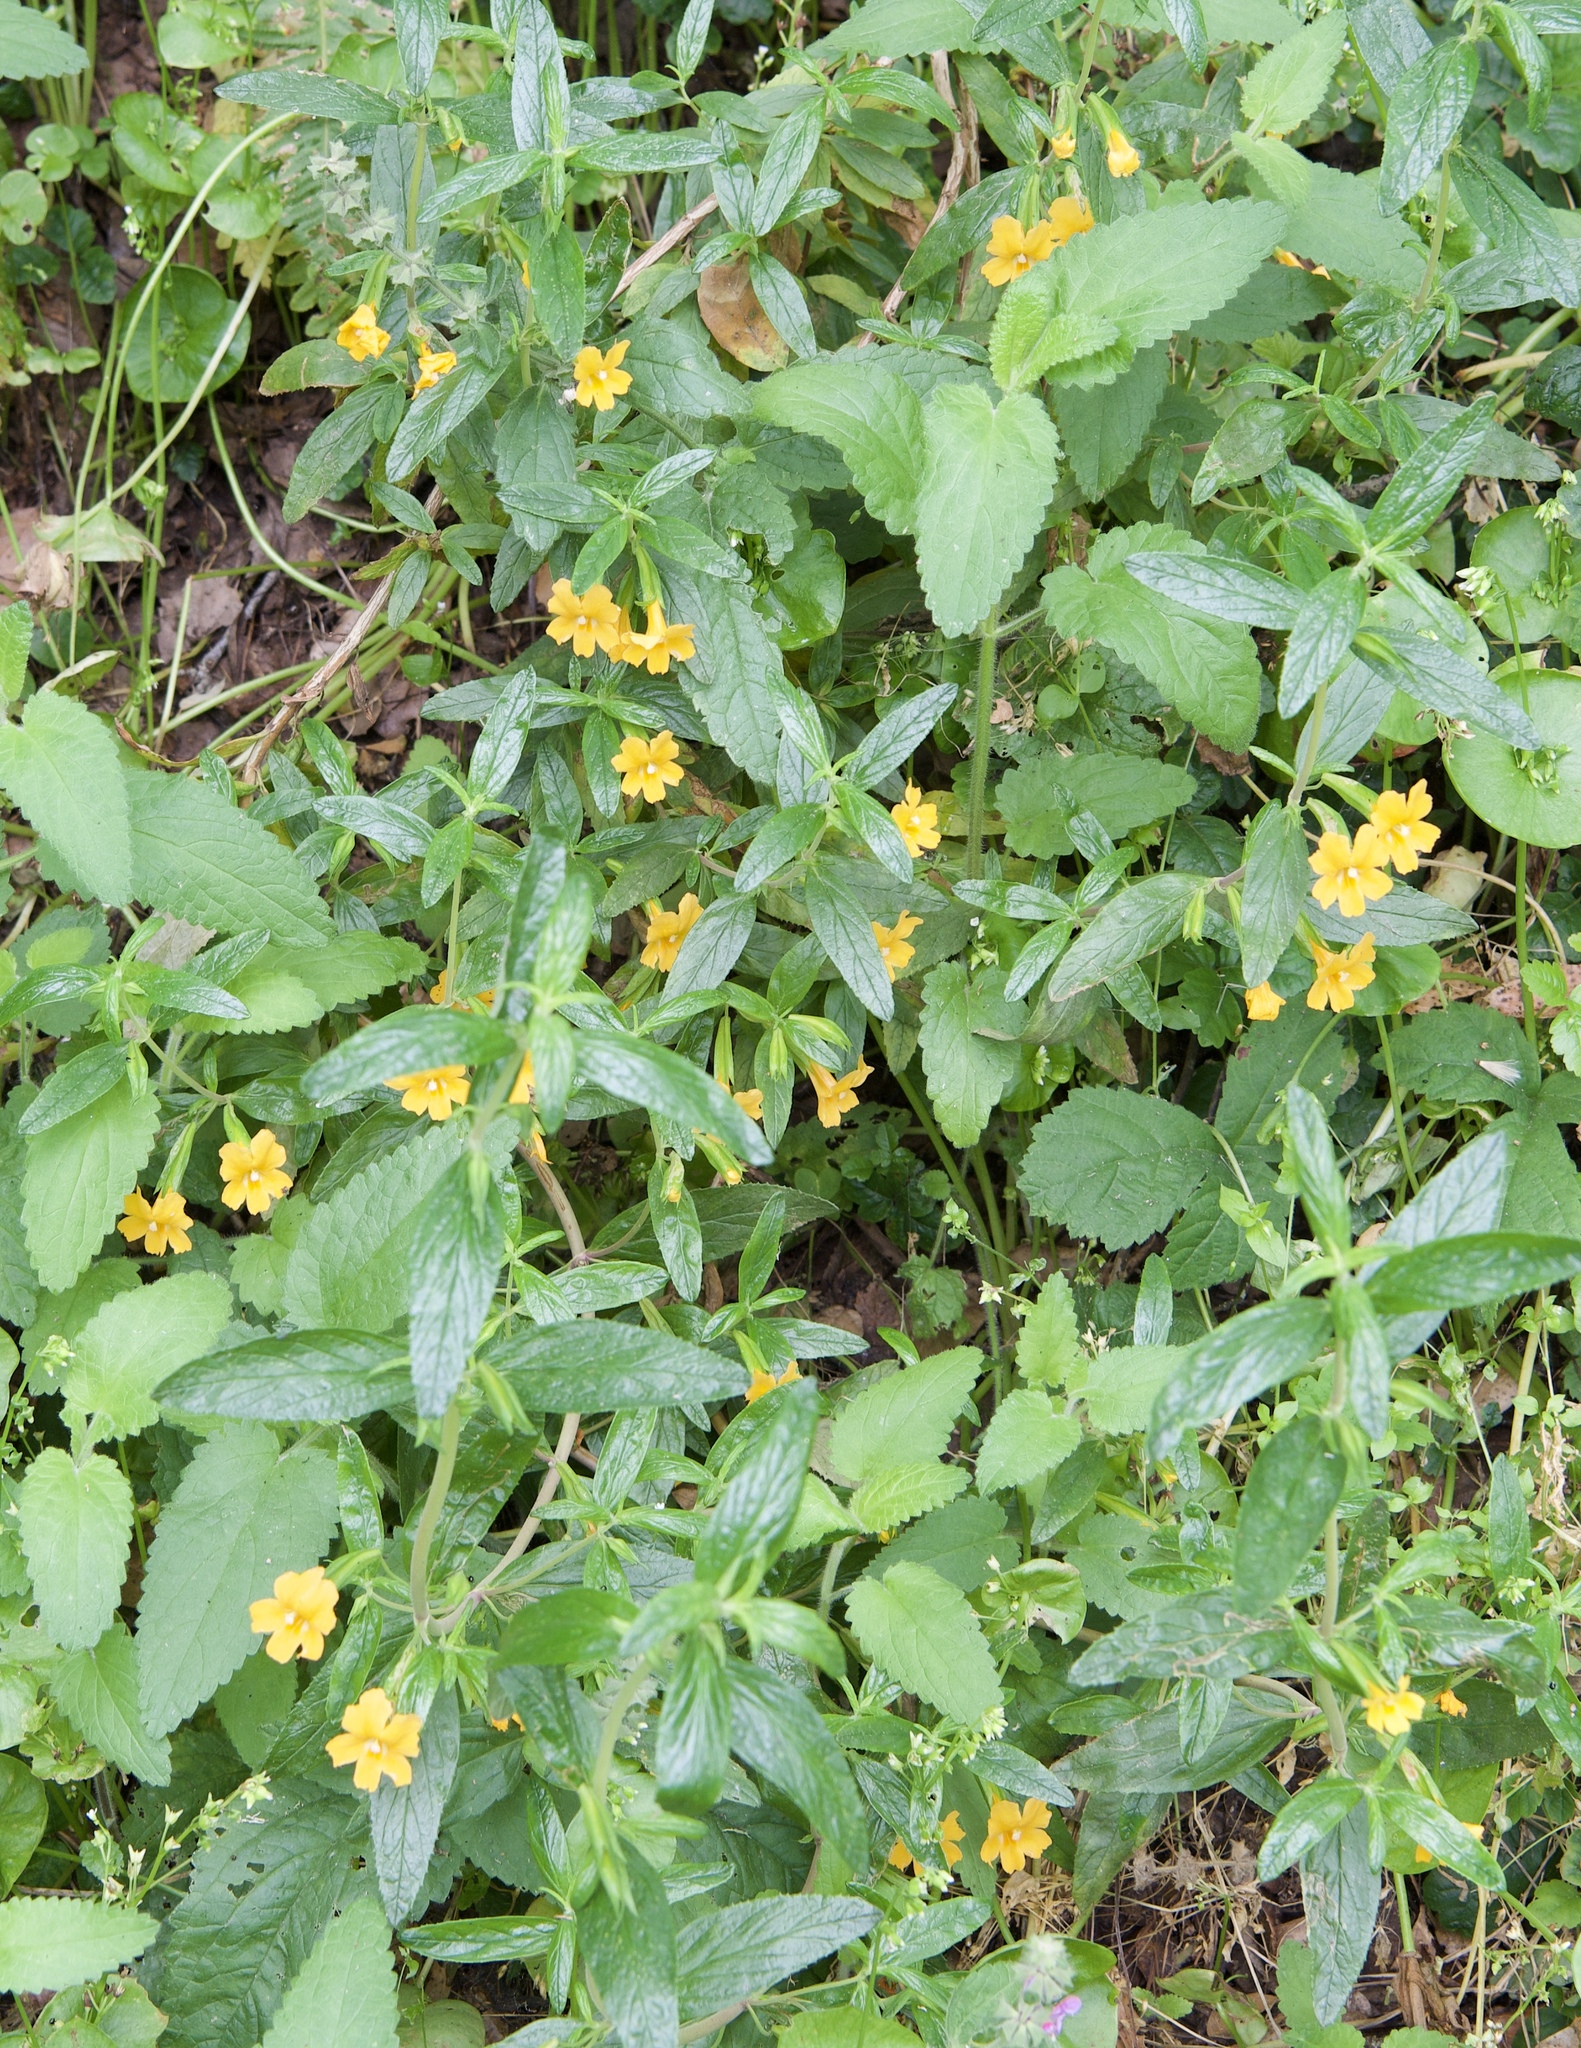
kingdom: Plantae
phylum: Tracheophyta
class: Magnoliopsida
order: Lamiales
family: Phrymaceae
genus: Diplacus
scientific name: Diplacus aurantiacus
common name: Bush monkey-flower
